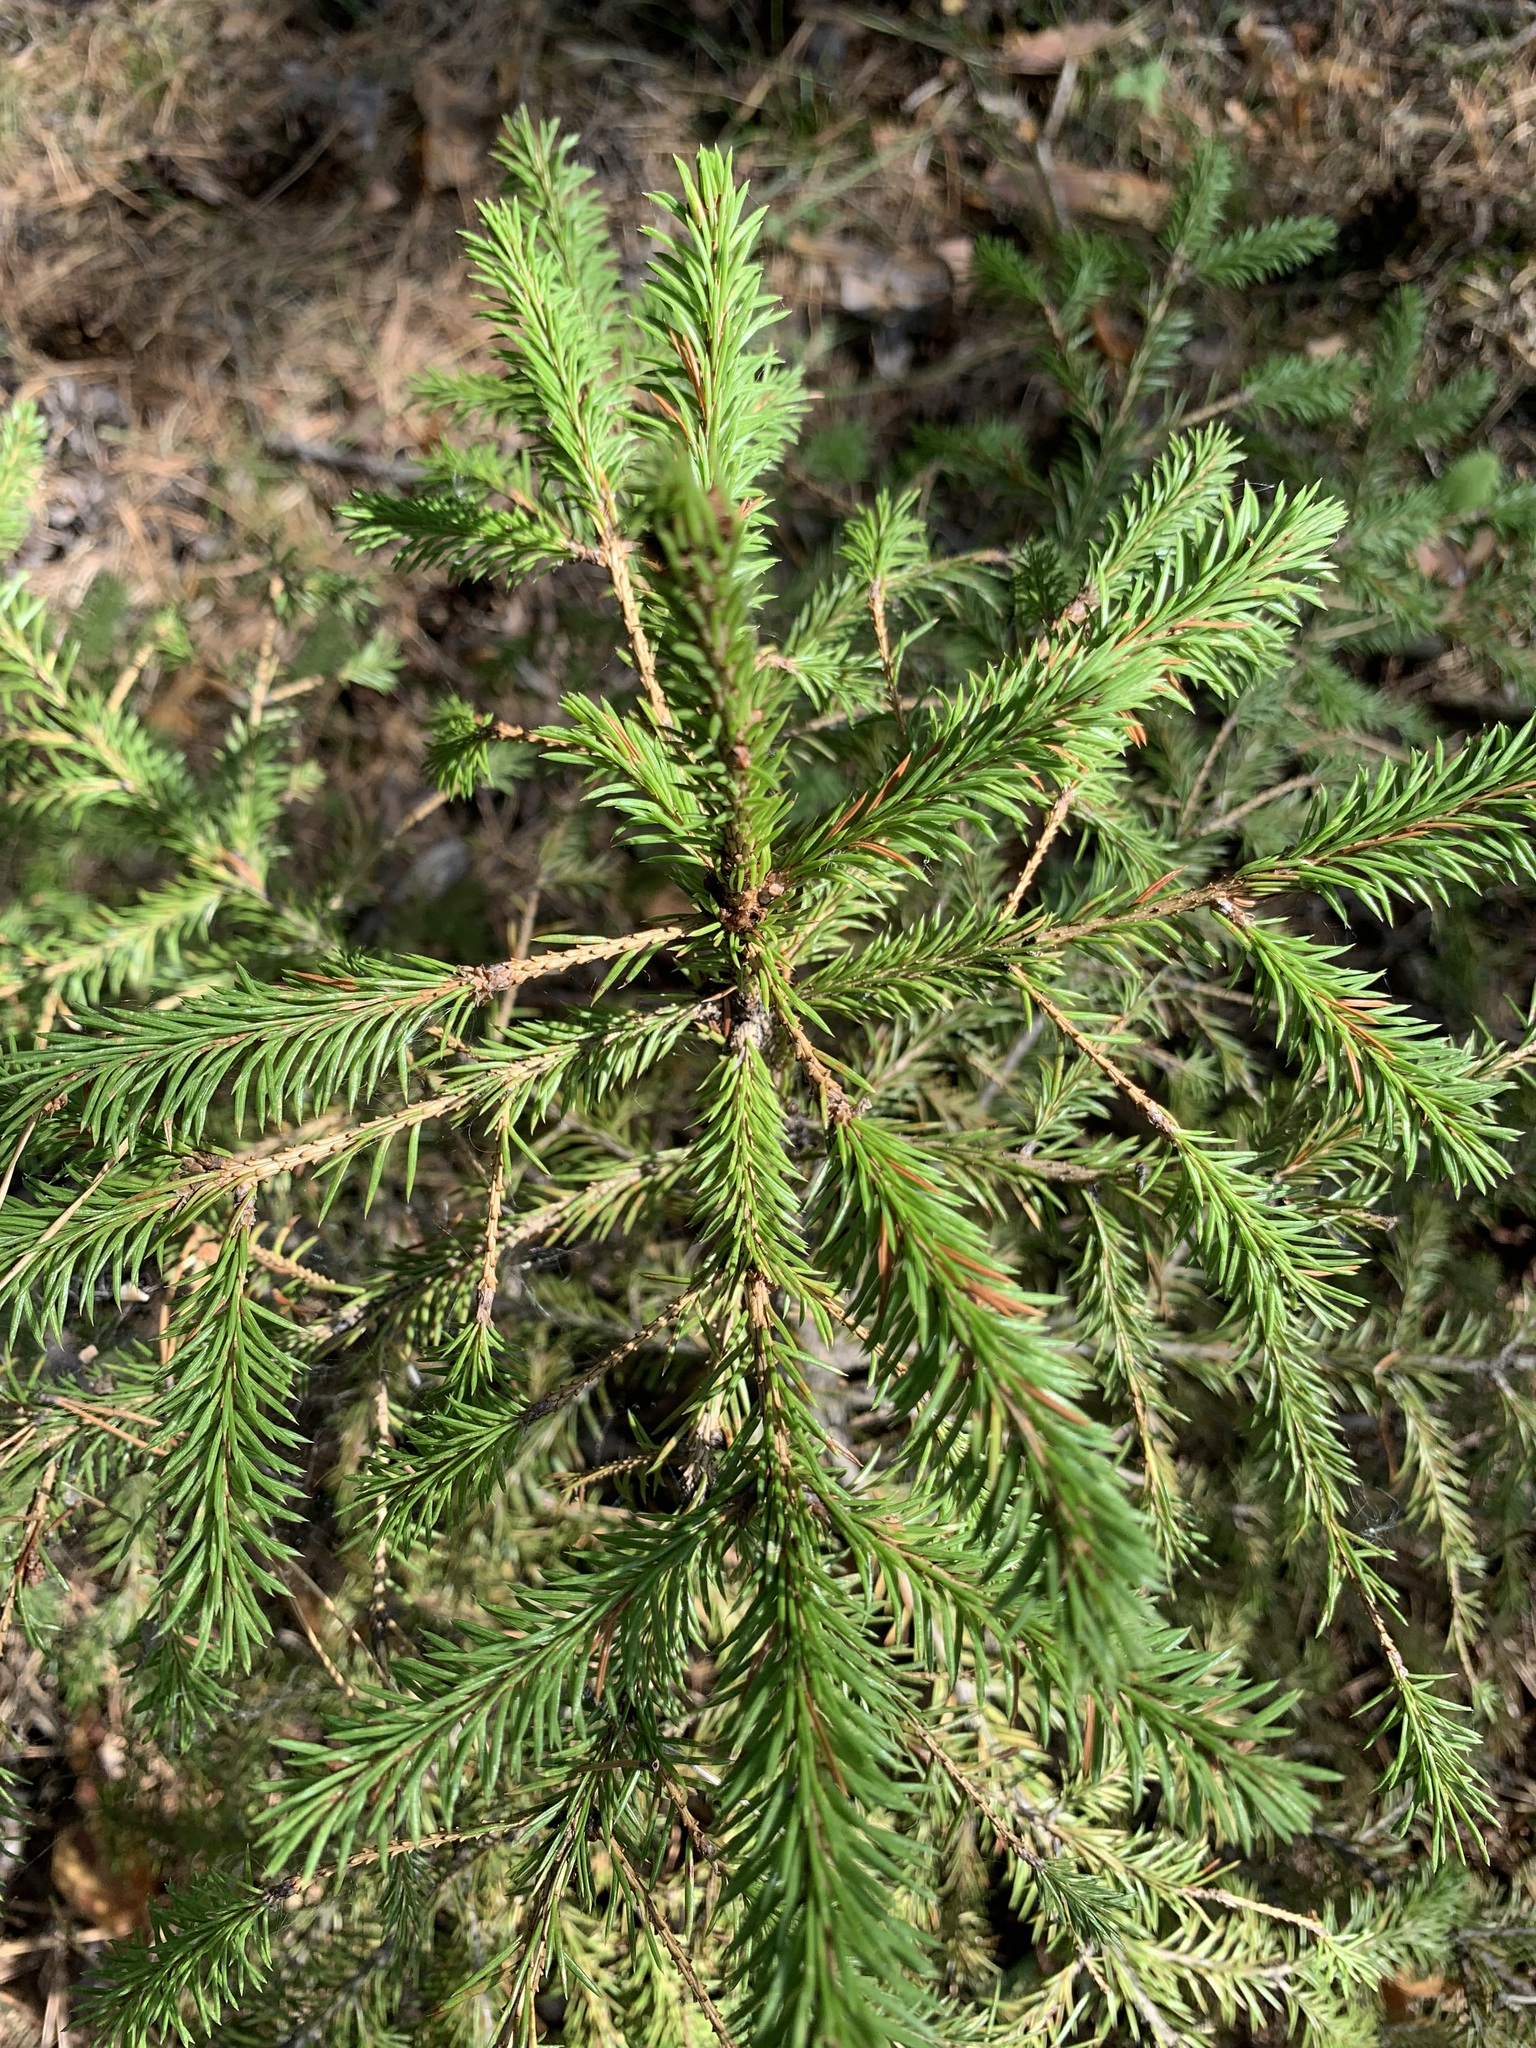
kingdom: Plantae
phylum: Tracheophyta
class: Pinopsida
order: Pinales
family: Pinaceae
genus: Picea
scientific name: Picea obovata
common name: Siberian spruce
